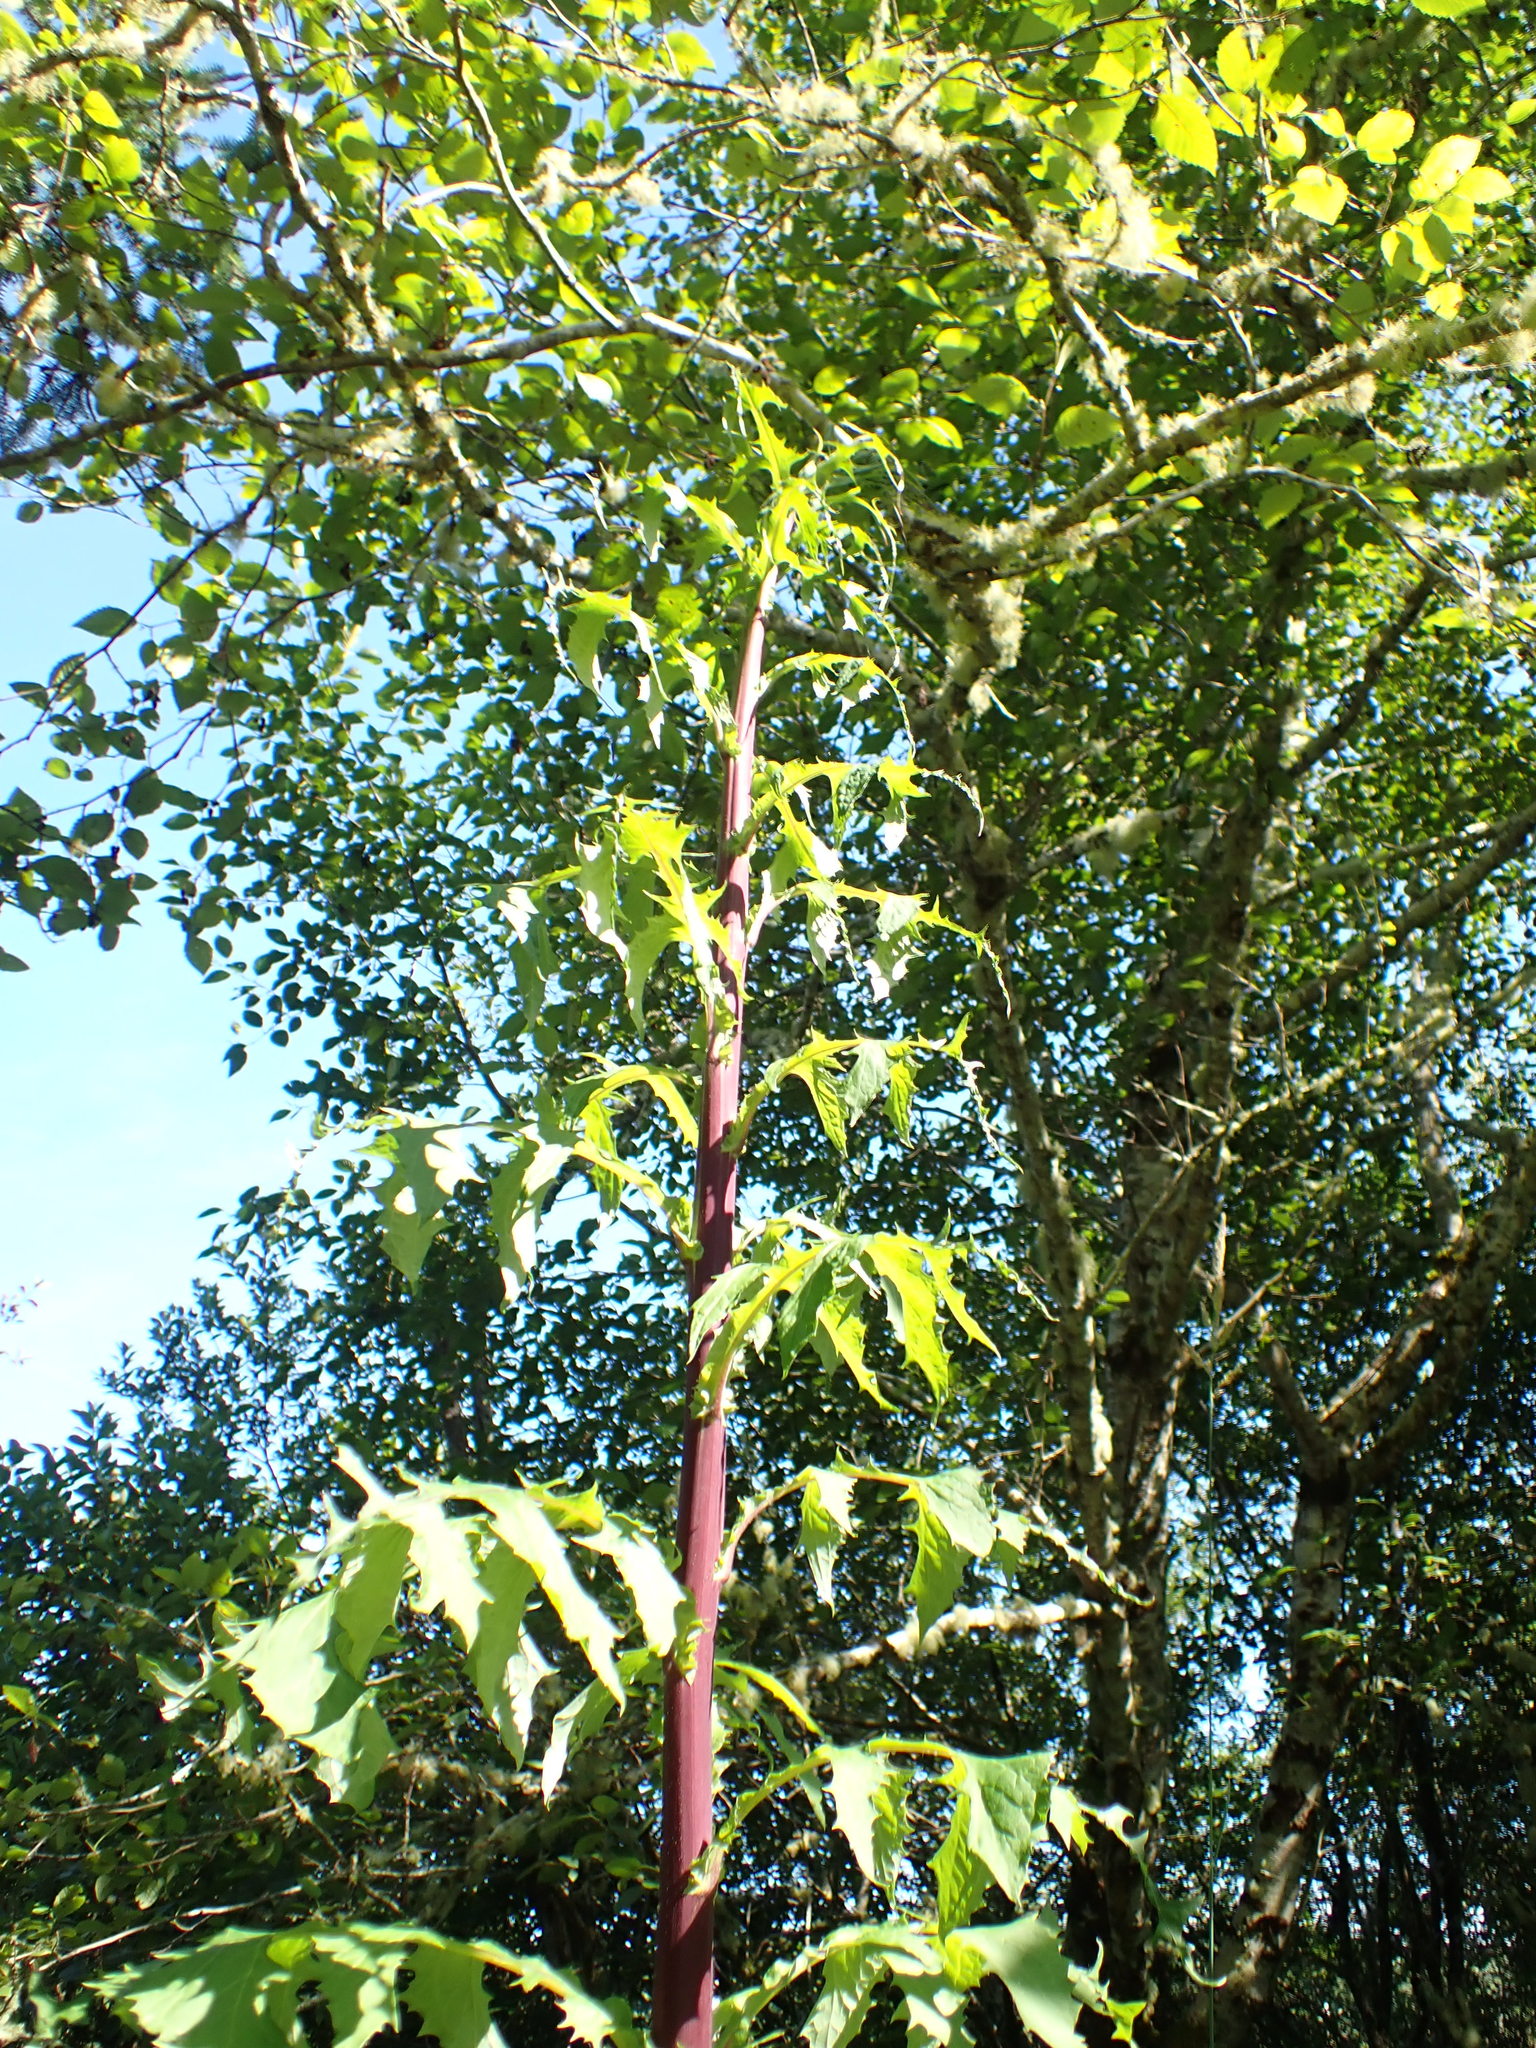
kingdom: Plantae
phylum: Tracheophyta
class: Magnoliopsida
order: Asterales
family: Asteraceae
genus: Lactuca
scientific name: Lactuca biennis
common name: Blue wood lettuce
